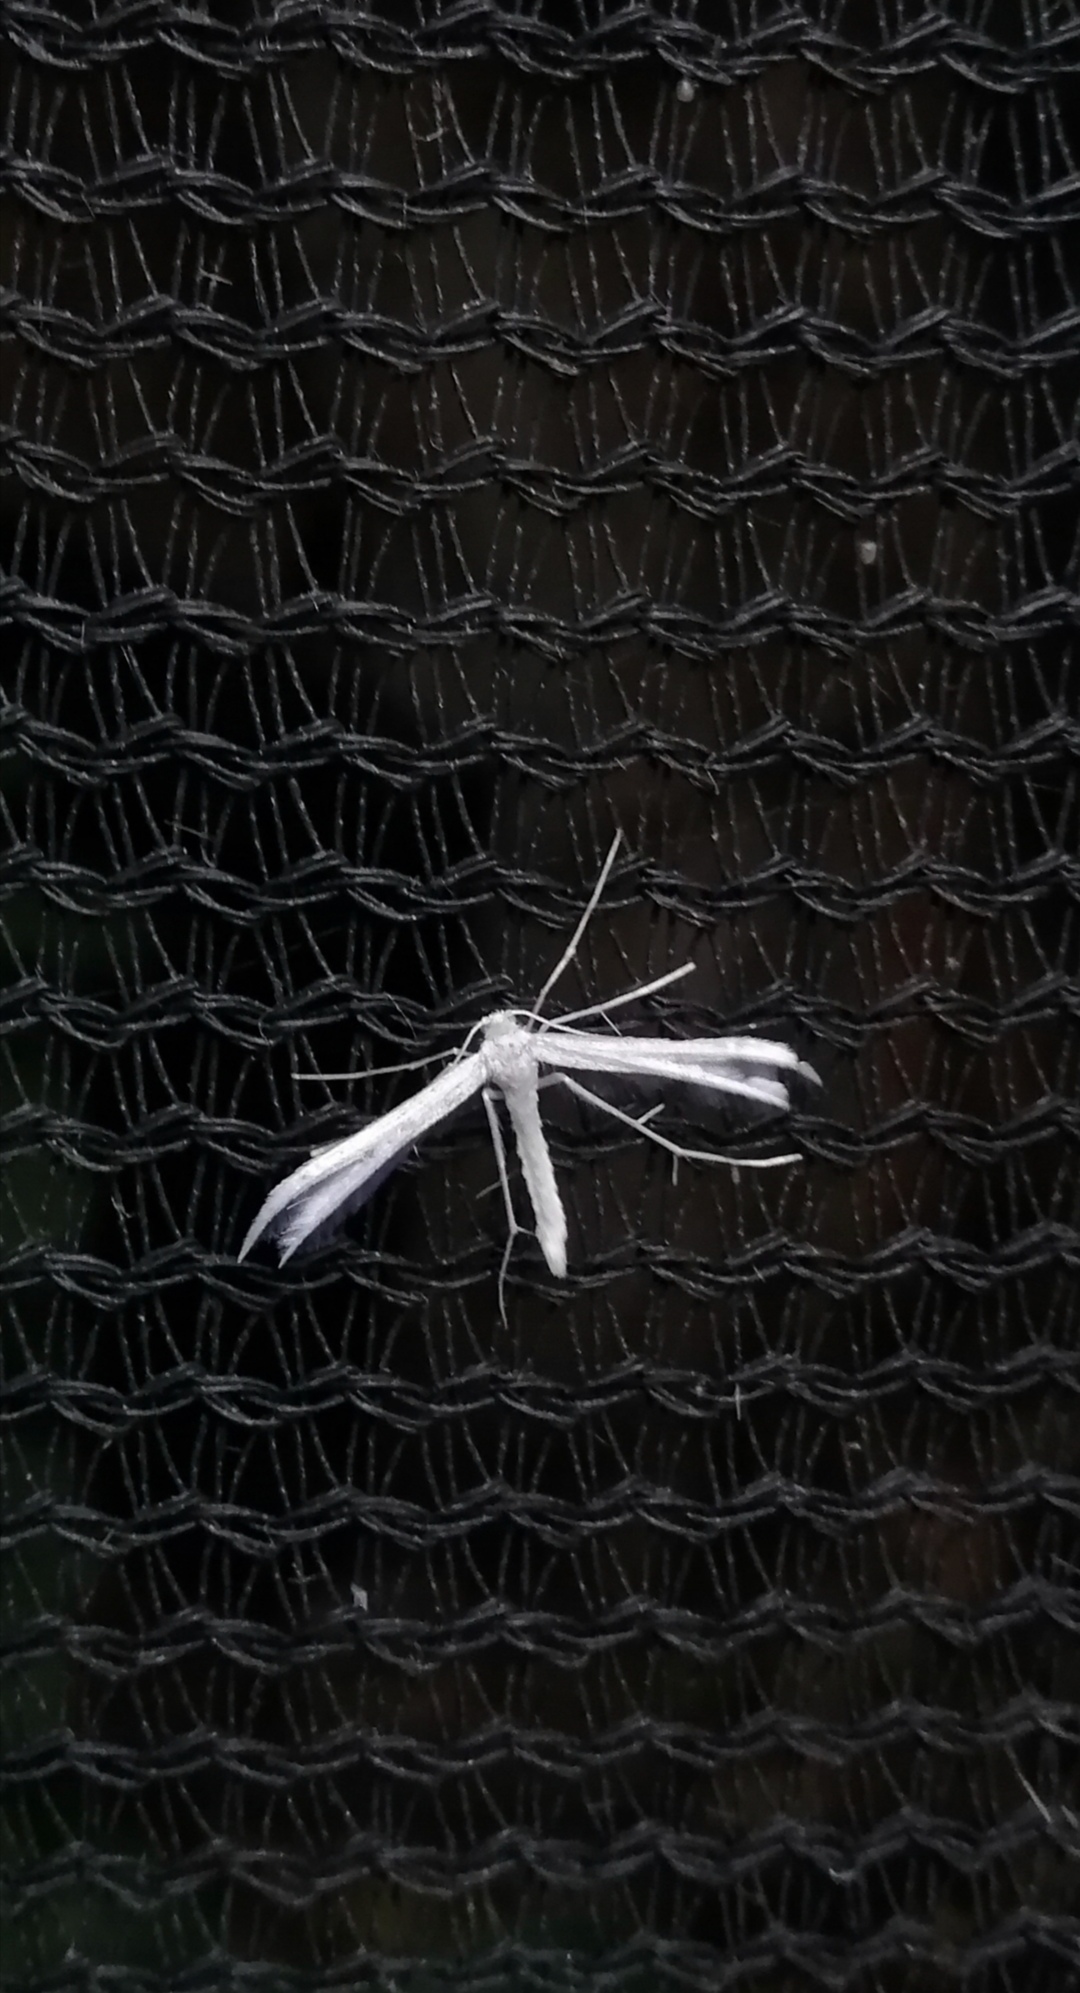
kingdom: Animalia
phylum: Arthropoda
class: Insecta
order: Lepidoptera
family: Pterophoridae
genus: Pterophorus
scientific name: Pterophorus monospilalis
